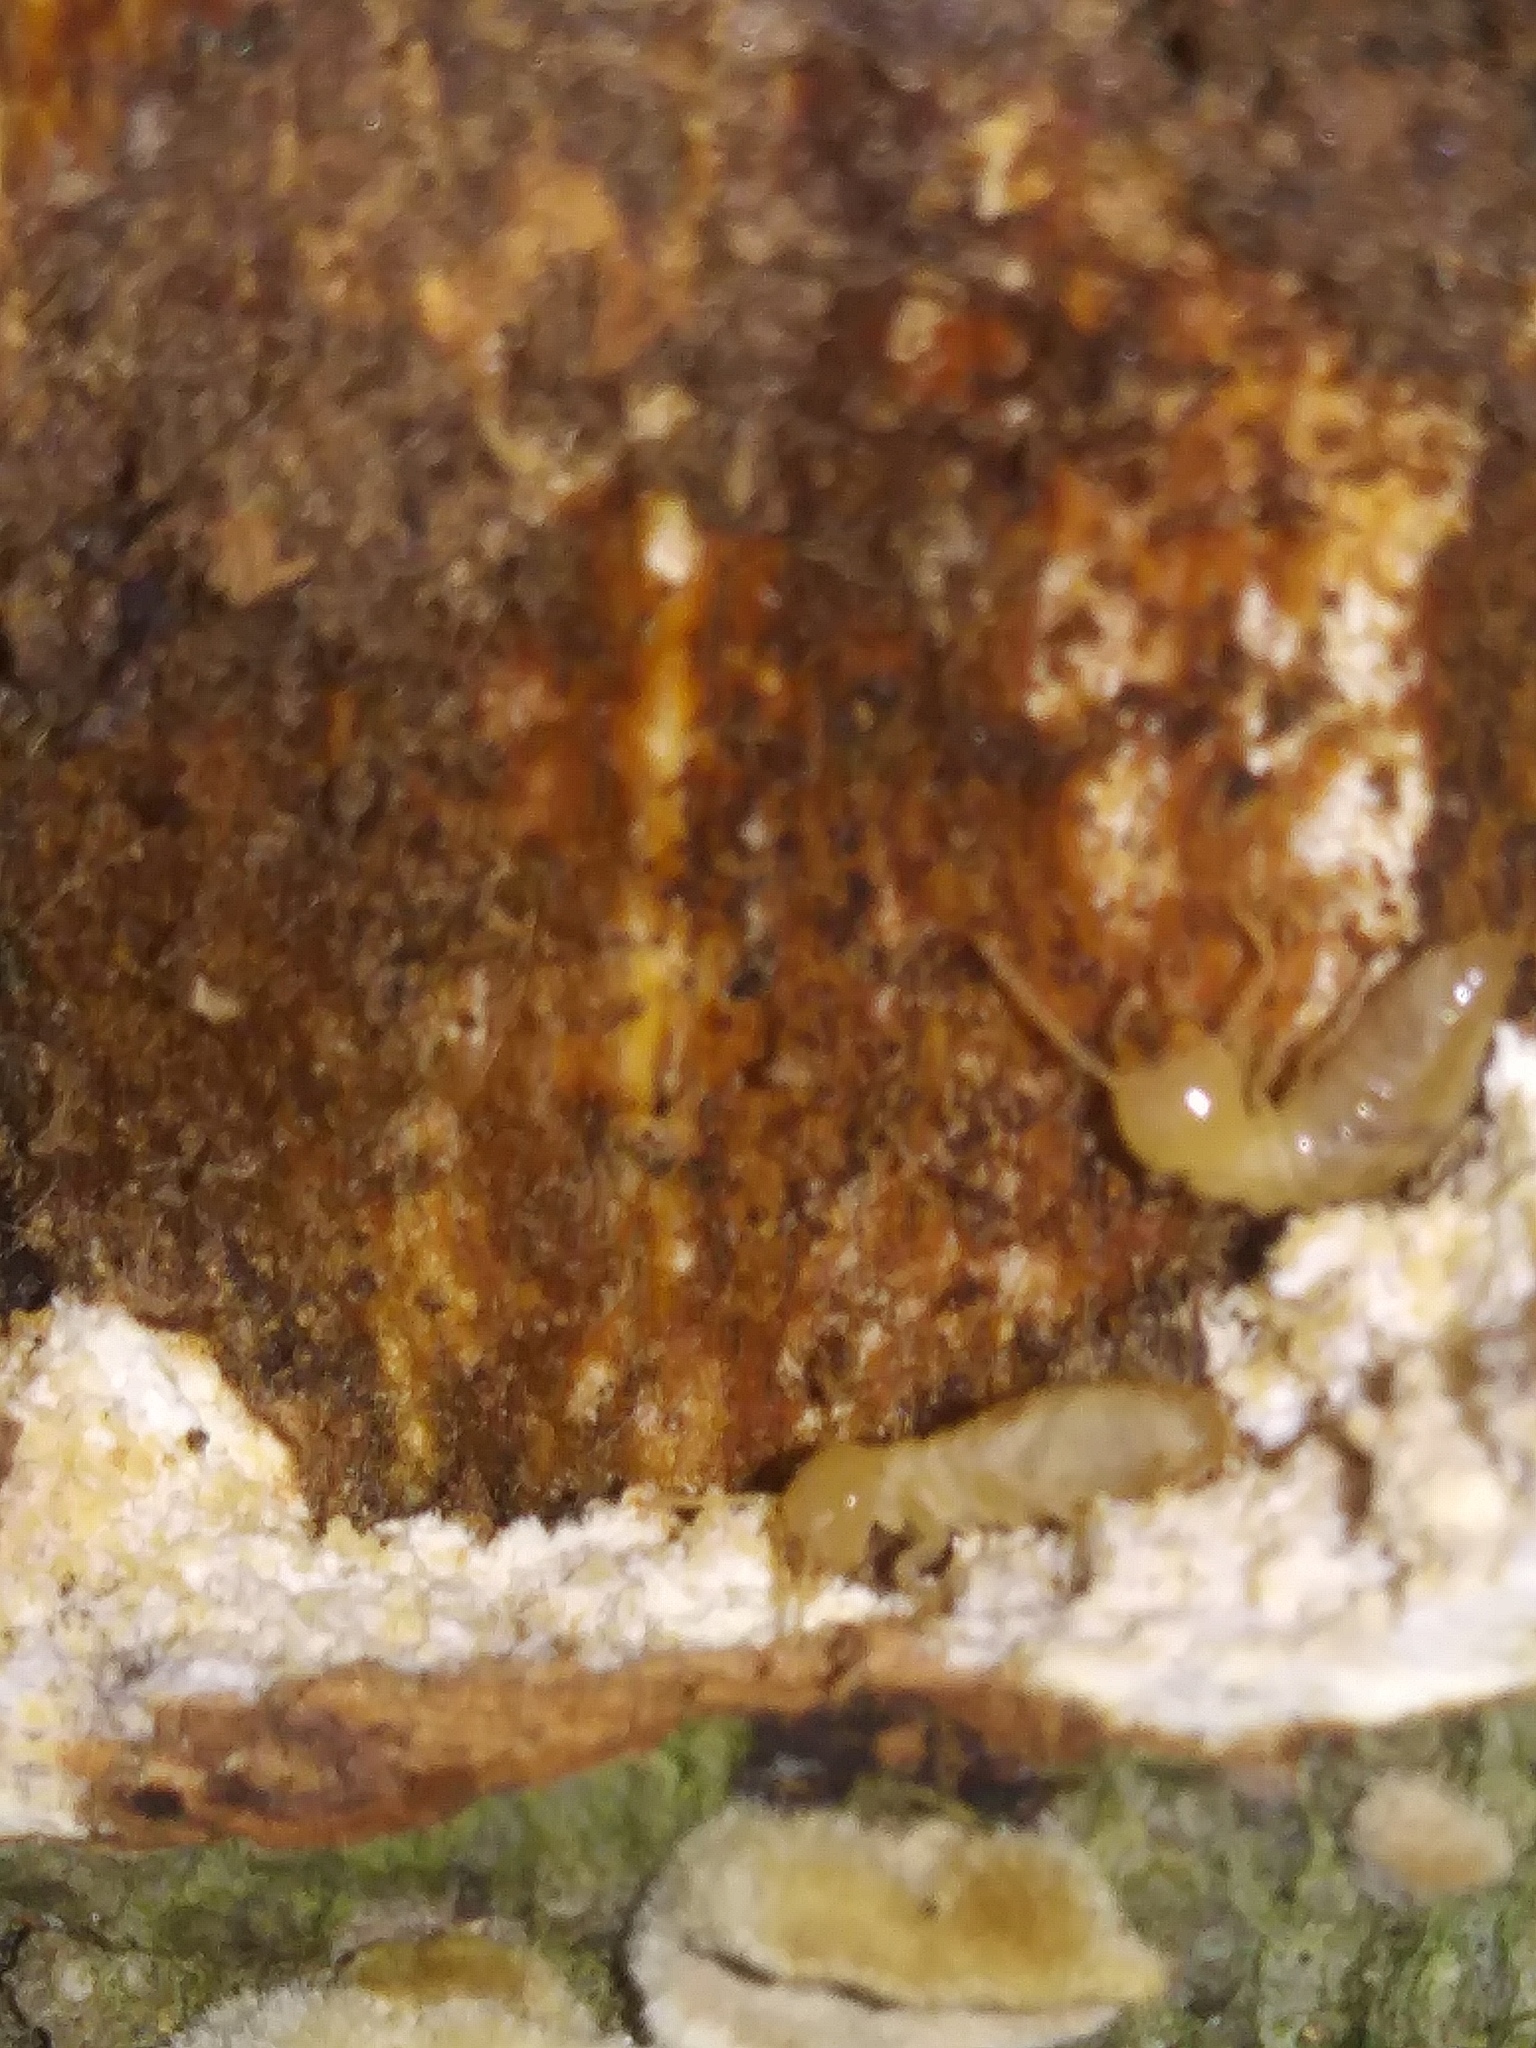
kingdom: Animalia
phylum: Arthropoda
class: Insecta
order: Blattodea
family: Rhinotermitidae
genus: Reticulitermes
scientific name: Reticulitermes flavipes
